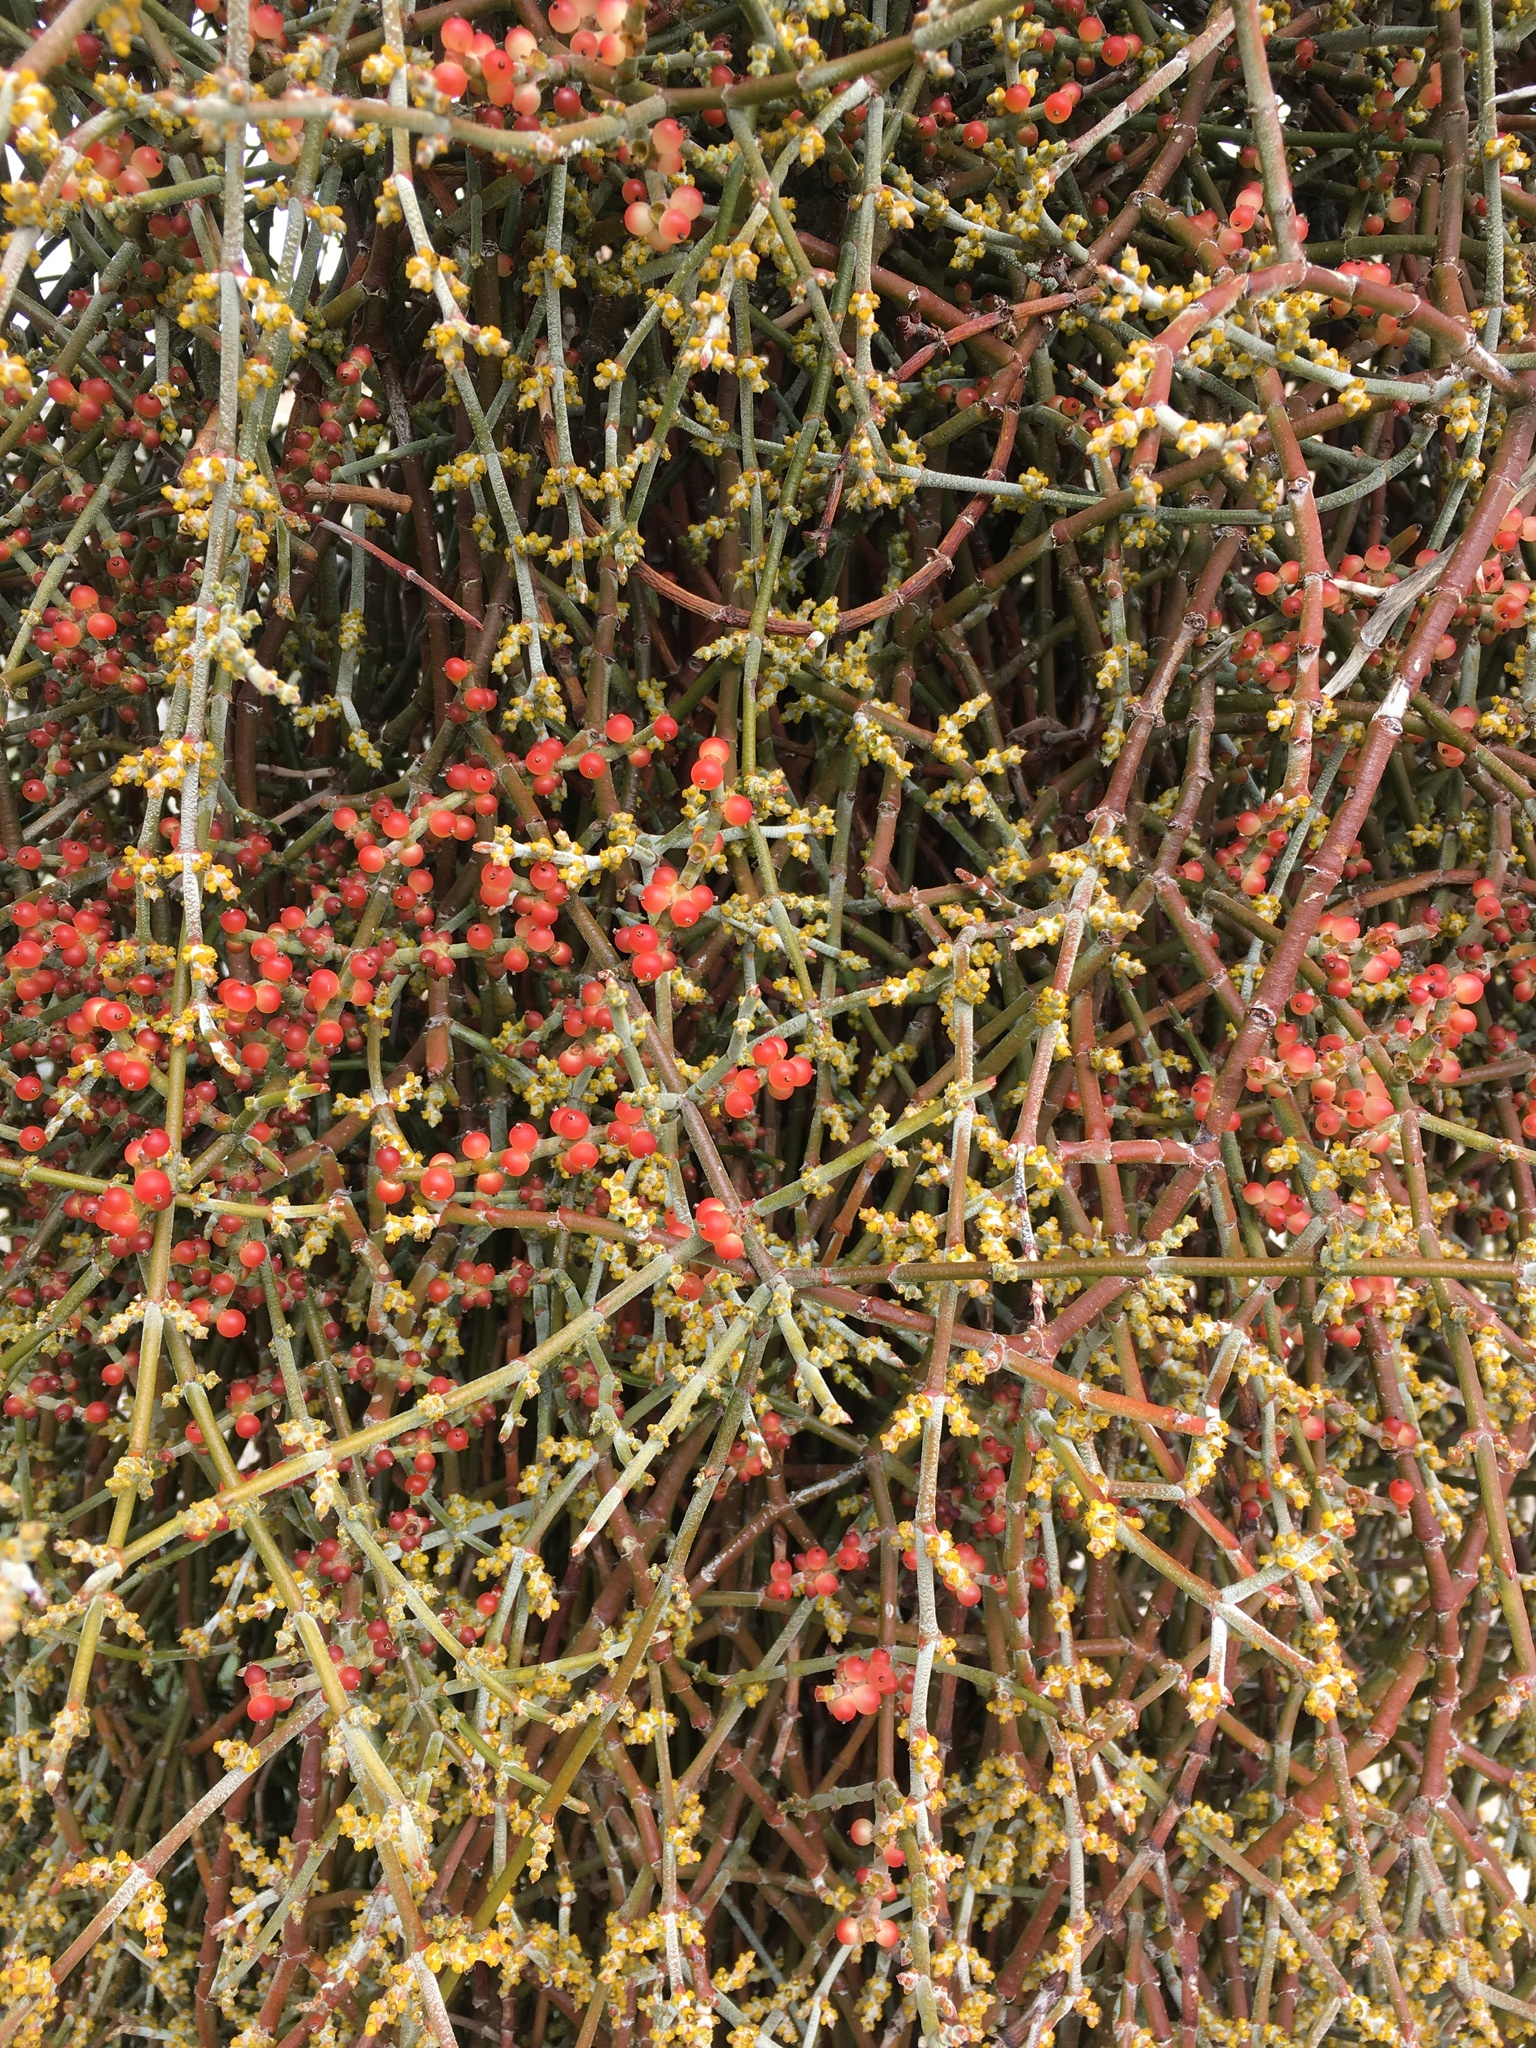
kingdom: Plantae
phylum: Tracheophyta
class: Magnoliopsida
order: Santalales
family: Viscaceae
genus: Phoradendron
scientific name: Phoradendron californicum
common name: Acacia mistletoe
